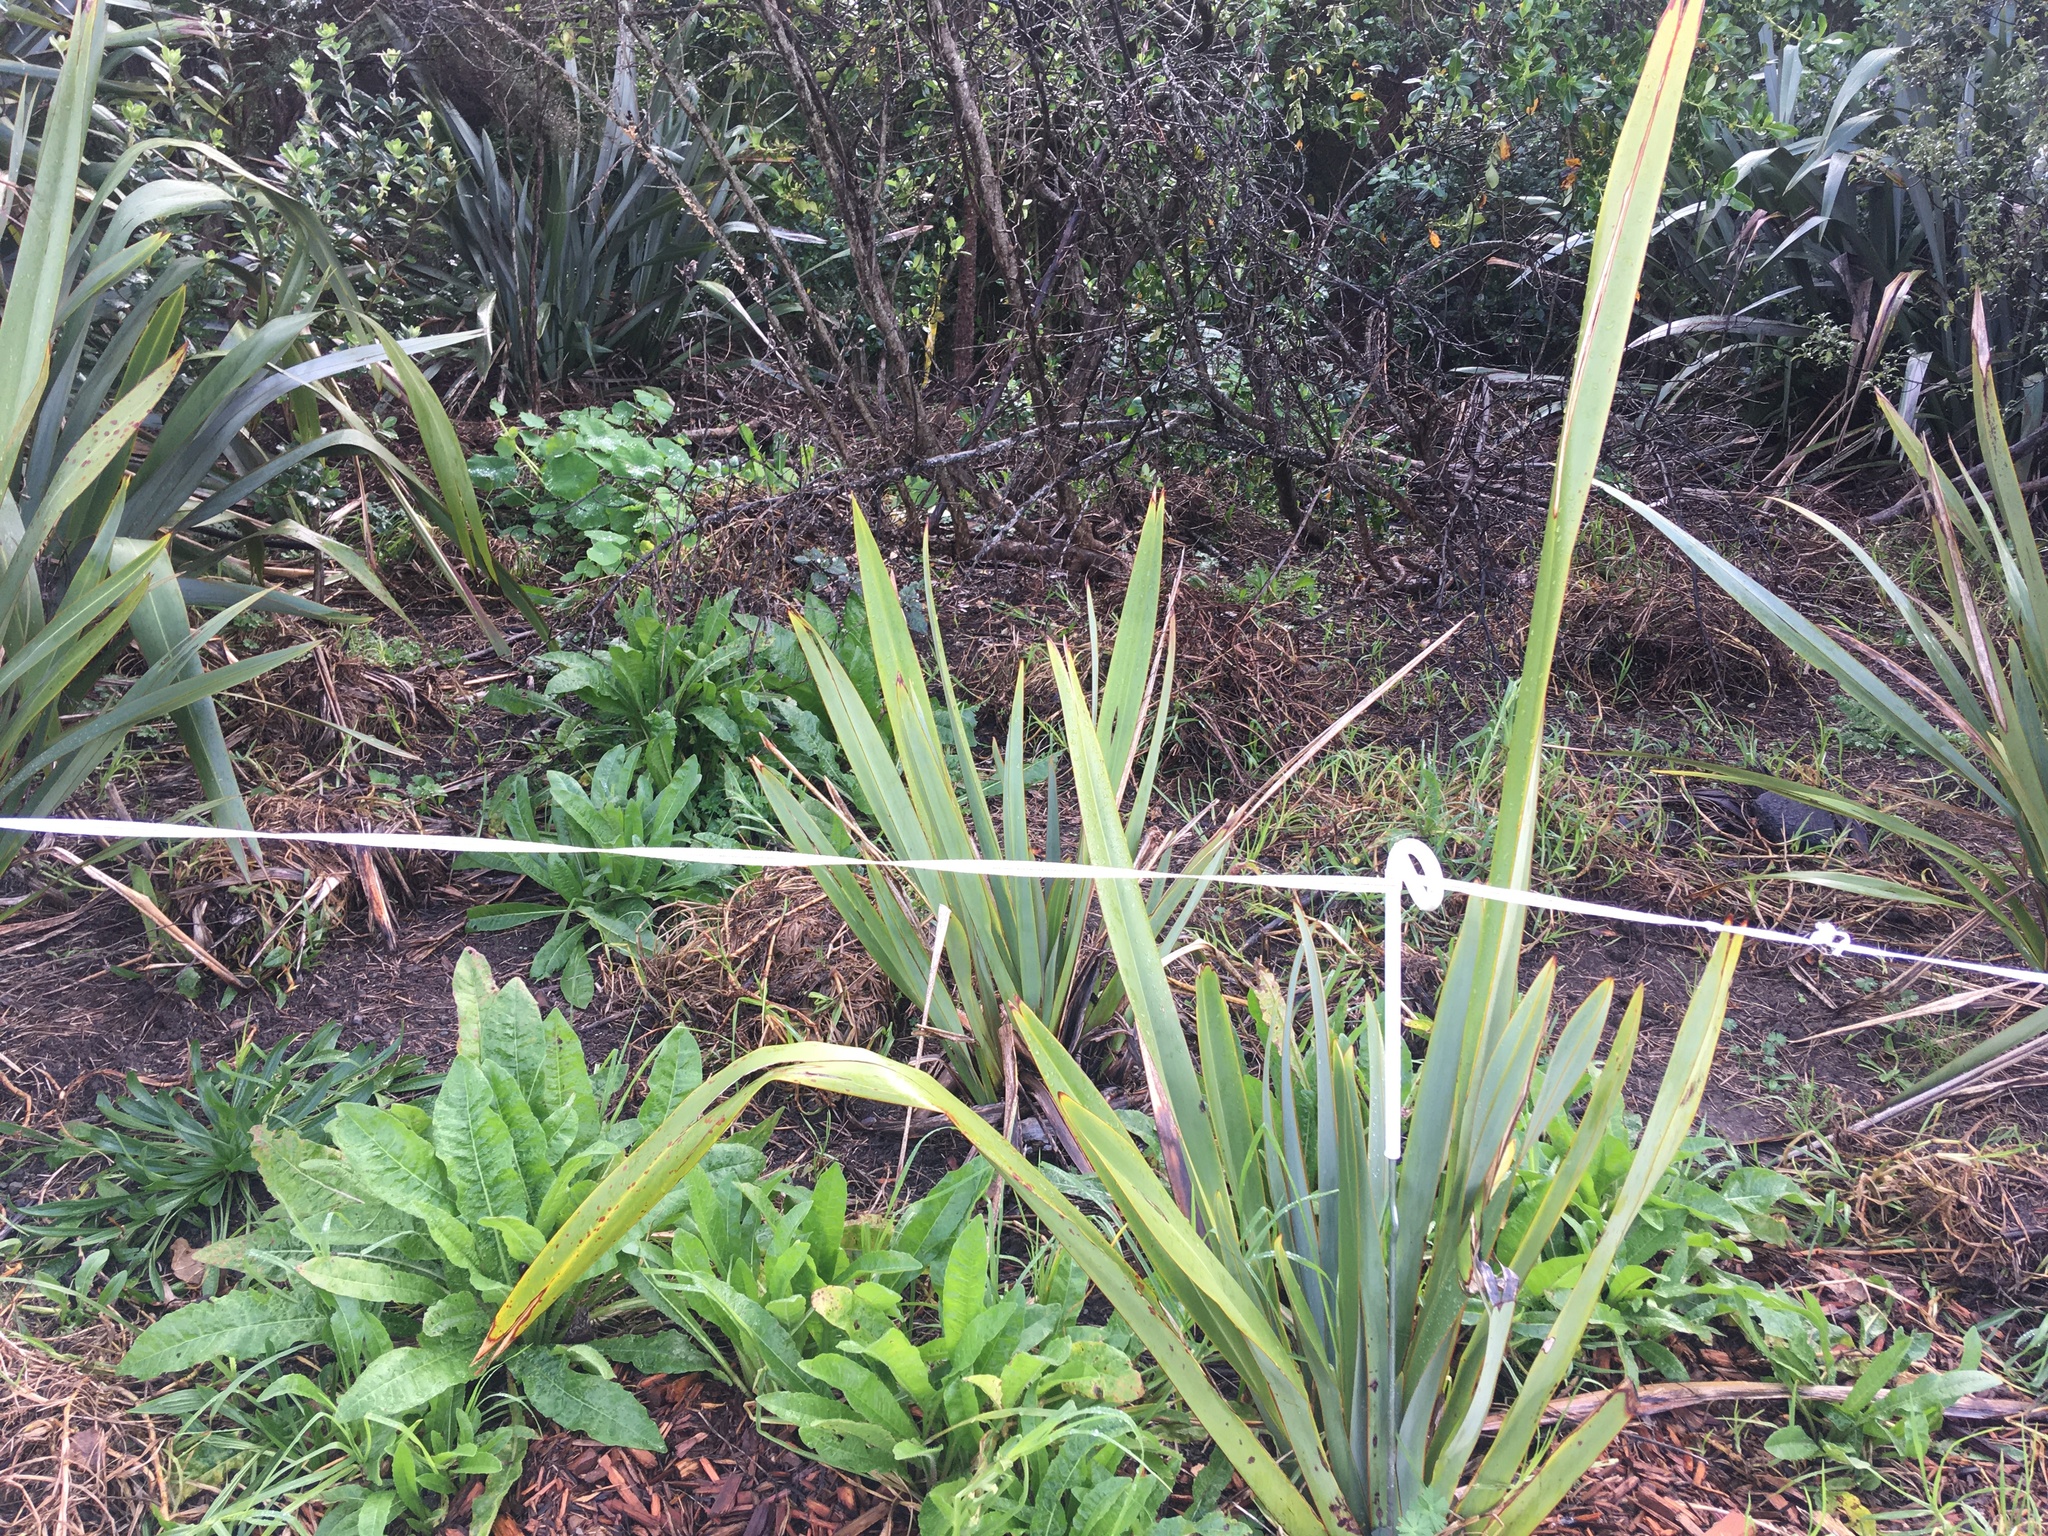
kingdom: Plantae
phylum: Tracheophyta
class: Magnoliopsida
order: Asterales
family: Asteraceae
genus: Helminthotheca
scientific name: Helminthotheca echioides
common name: Ox-tongue
